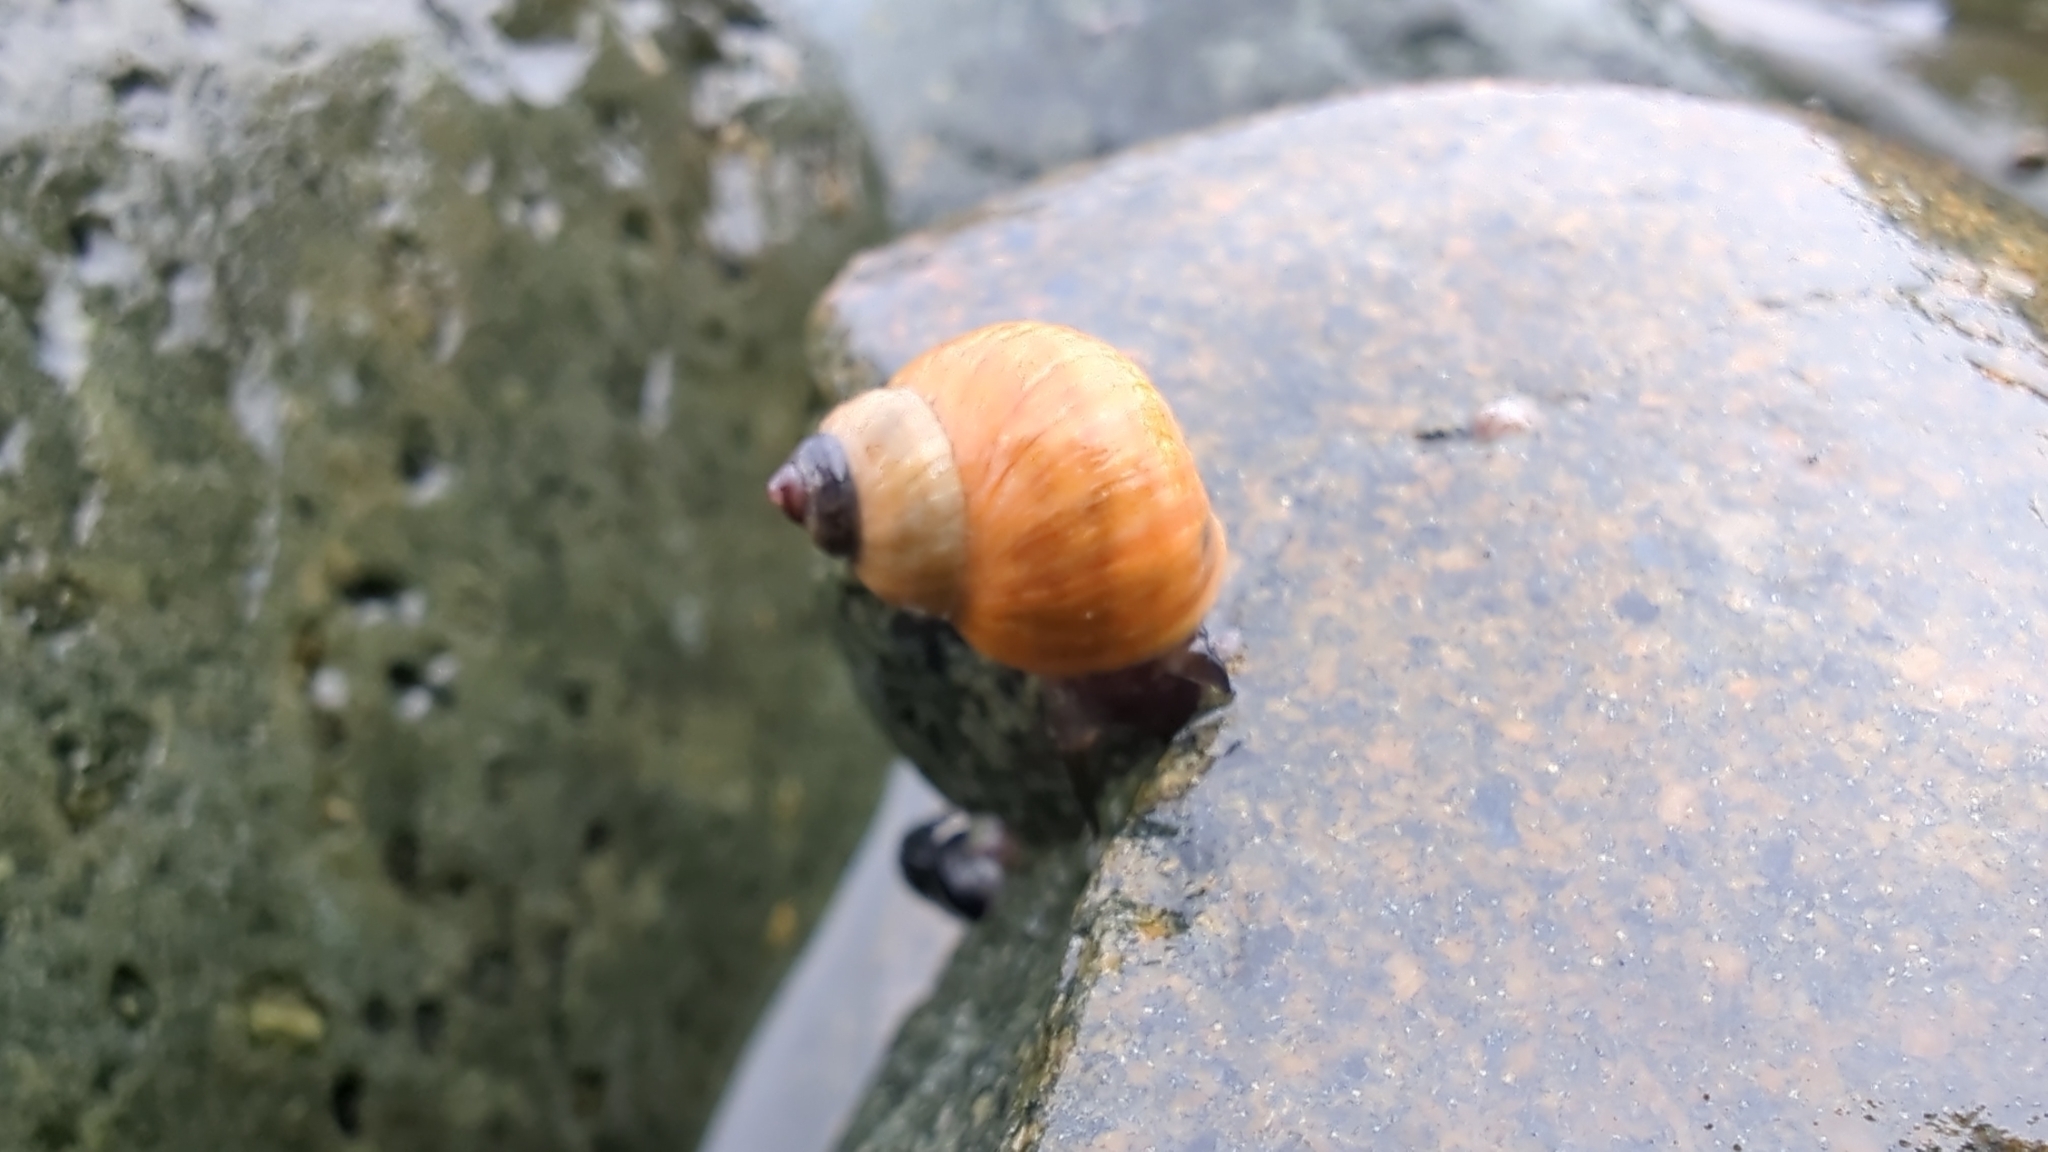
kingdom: Animalia
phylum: Mollusca
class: Gastropoda
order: Littorinimorpha
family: Littorinidae
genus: Littorina
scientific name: Littorina sitkana
